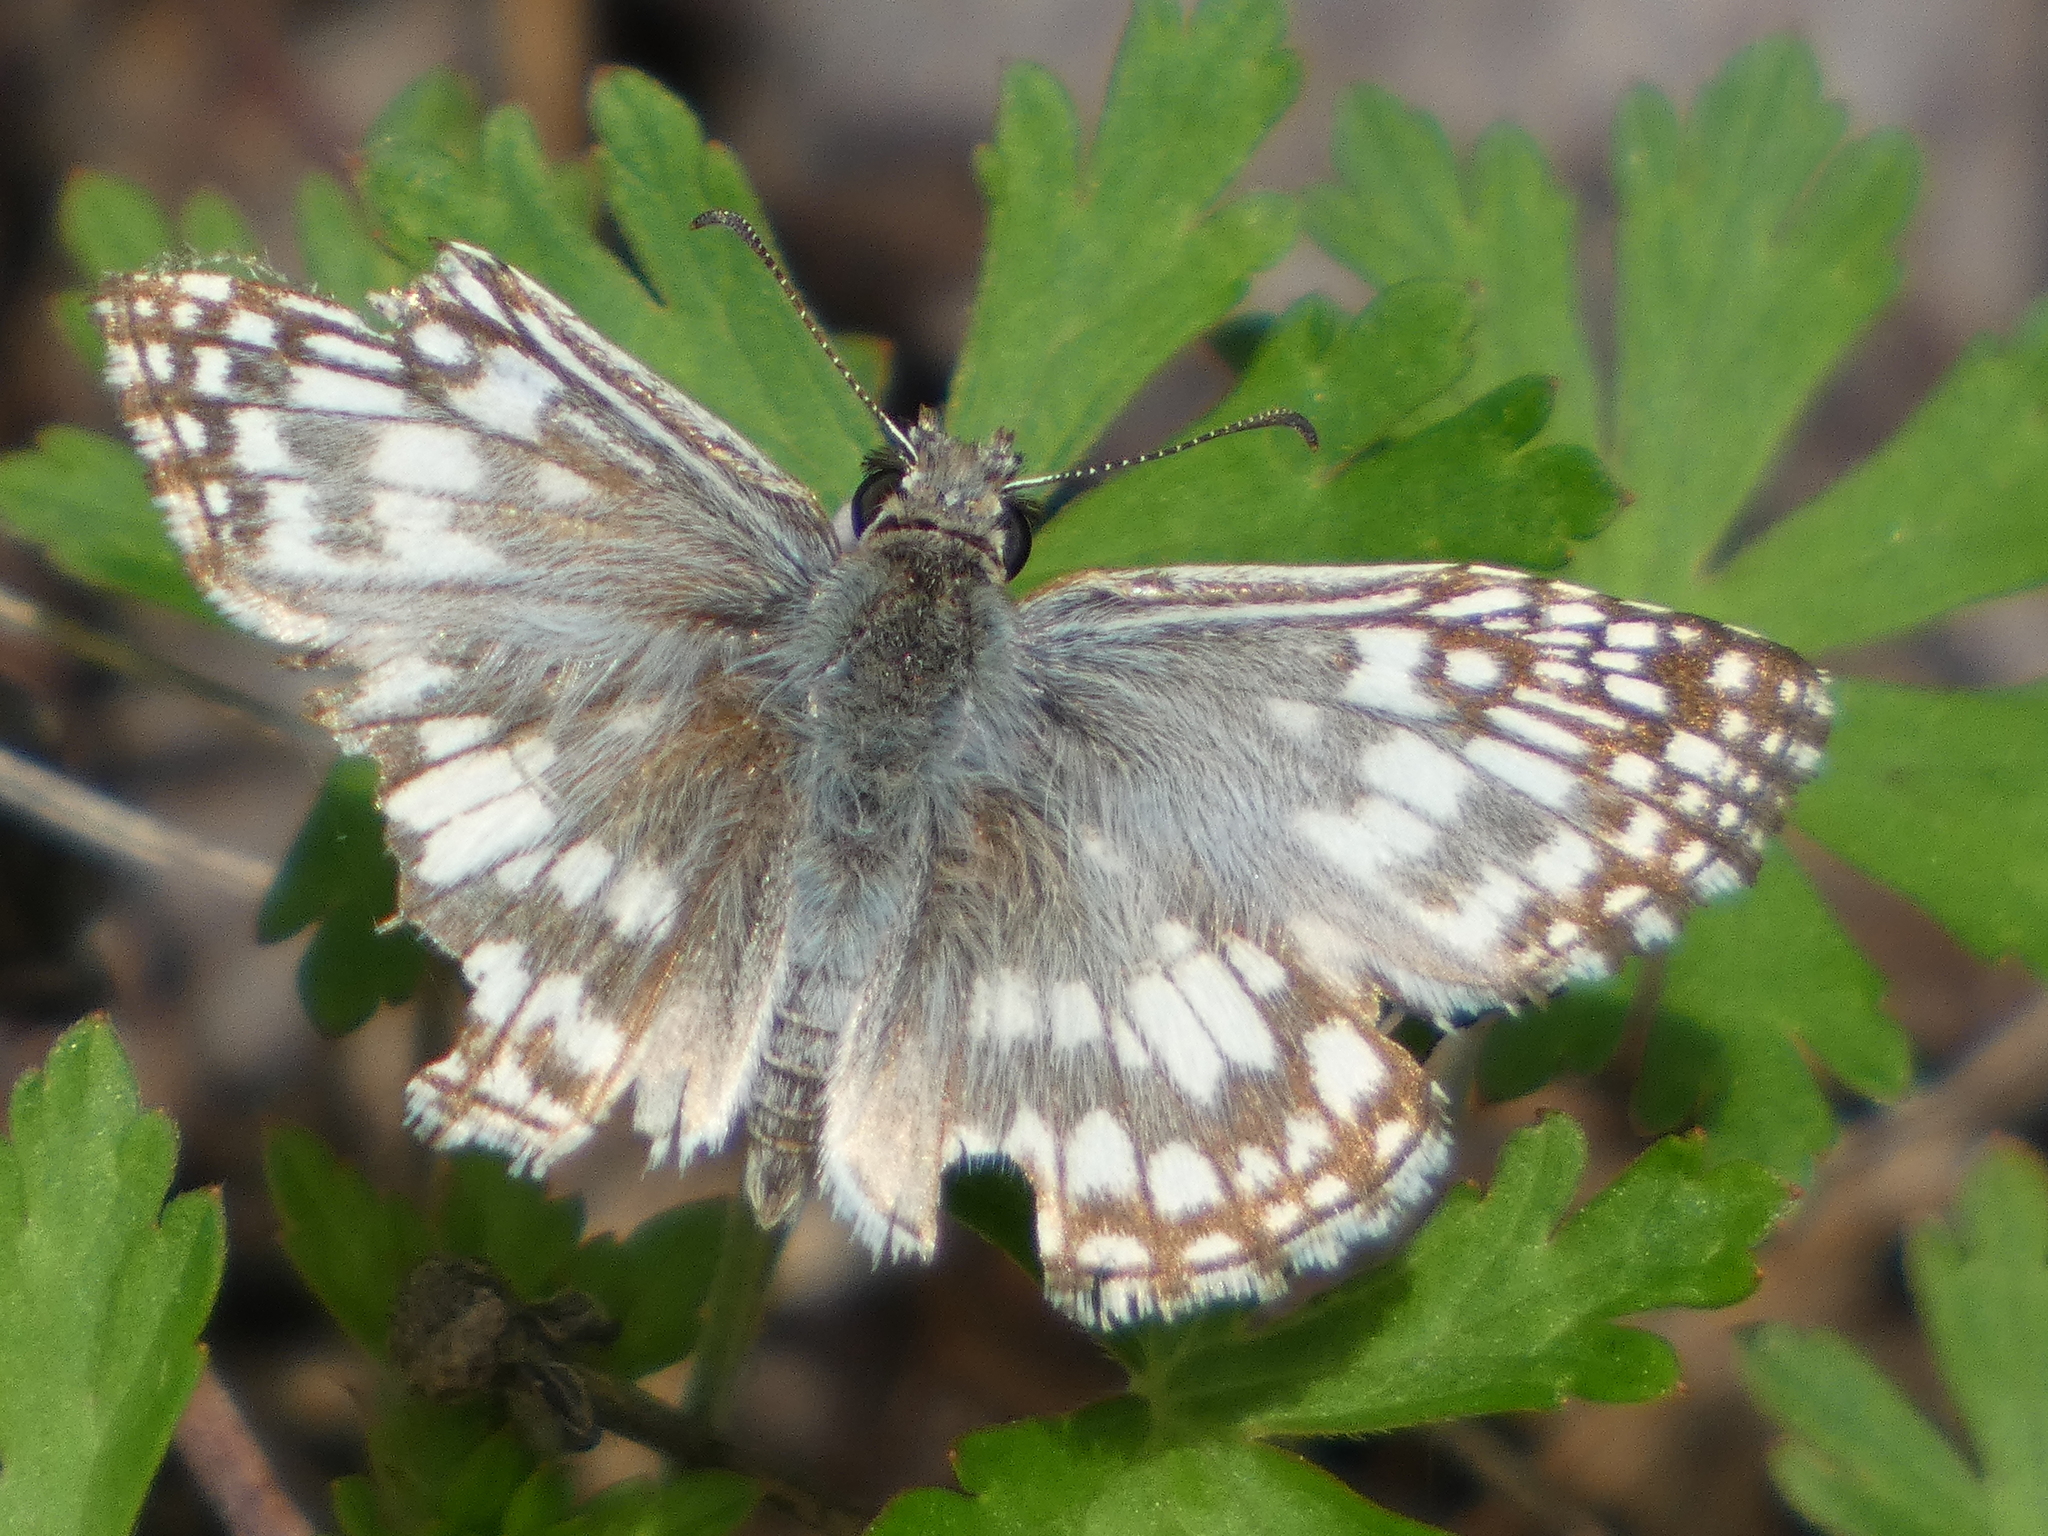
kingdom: Animalia
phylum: Arthropoda
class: Insecta
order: Lepidoptera
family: Hesperiidae
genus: Pyrgus
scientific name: Pyrgus oileus
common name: Tropical checkered-skipper
